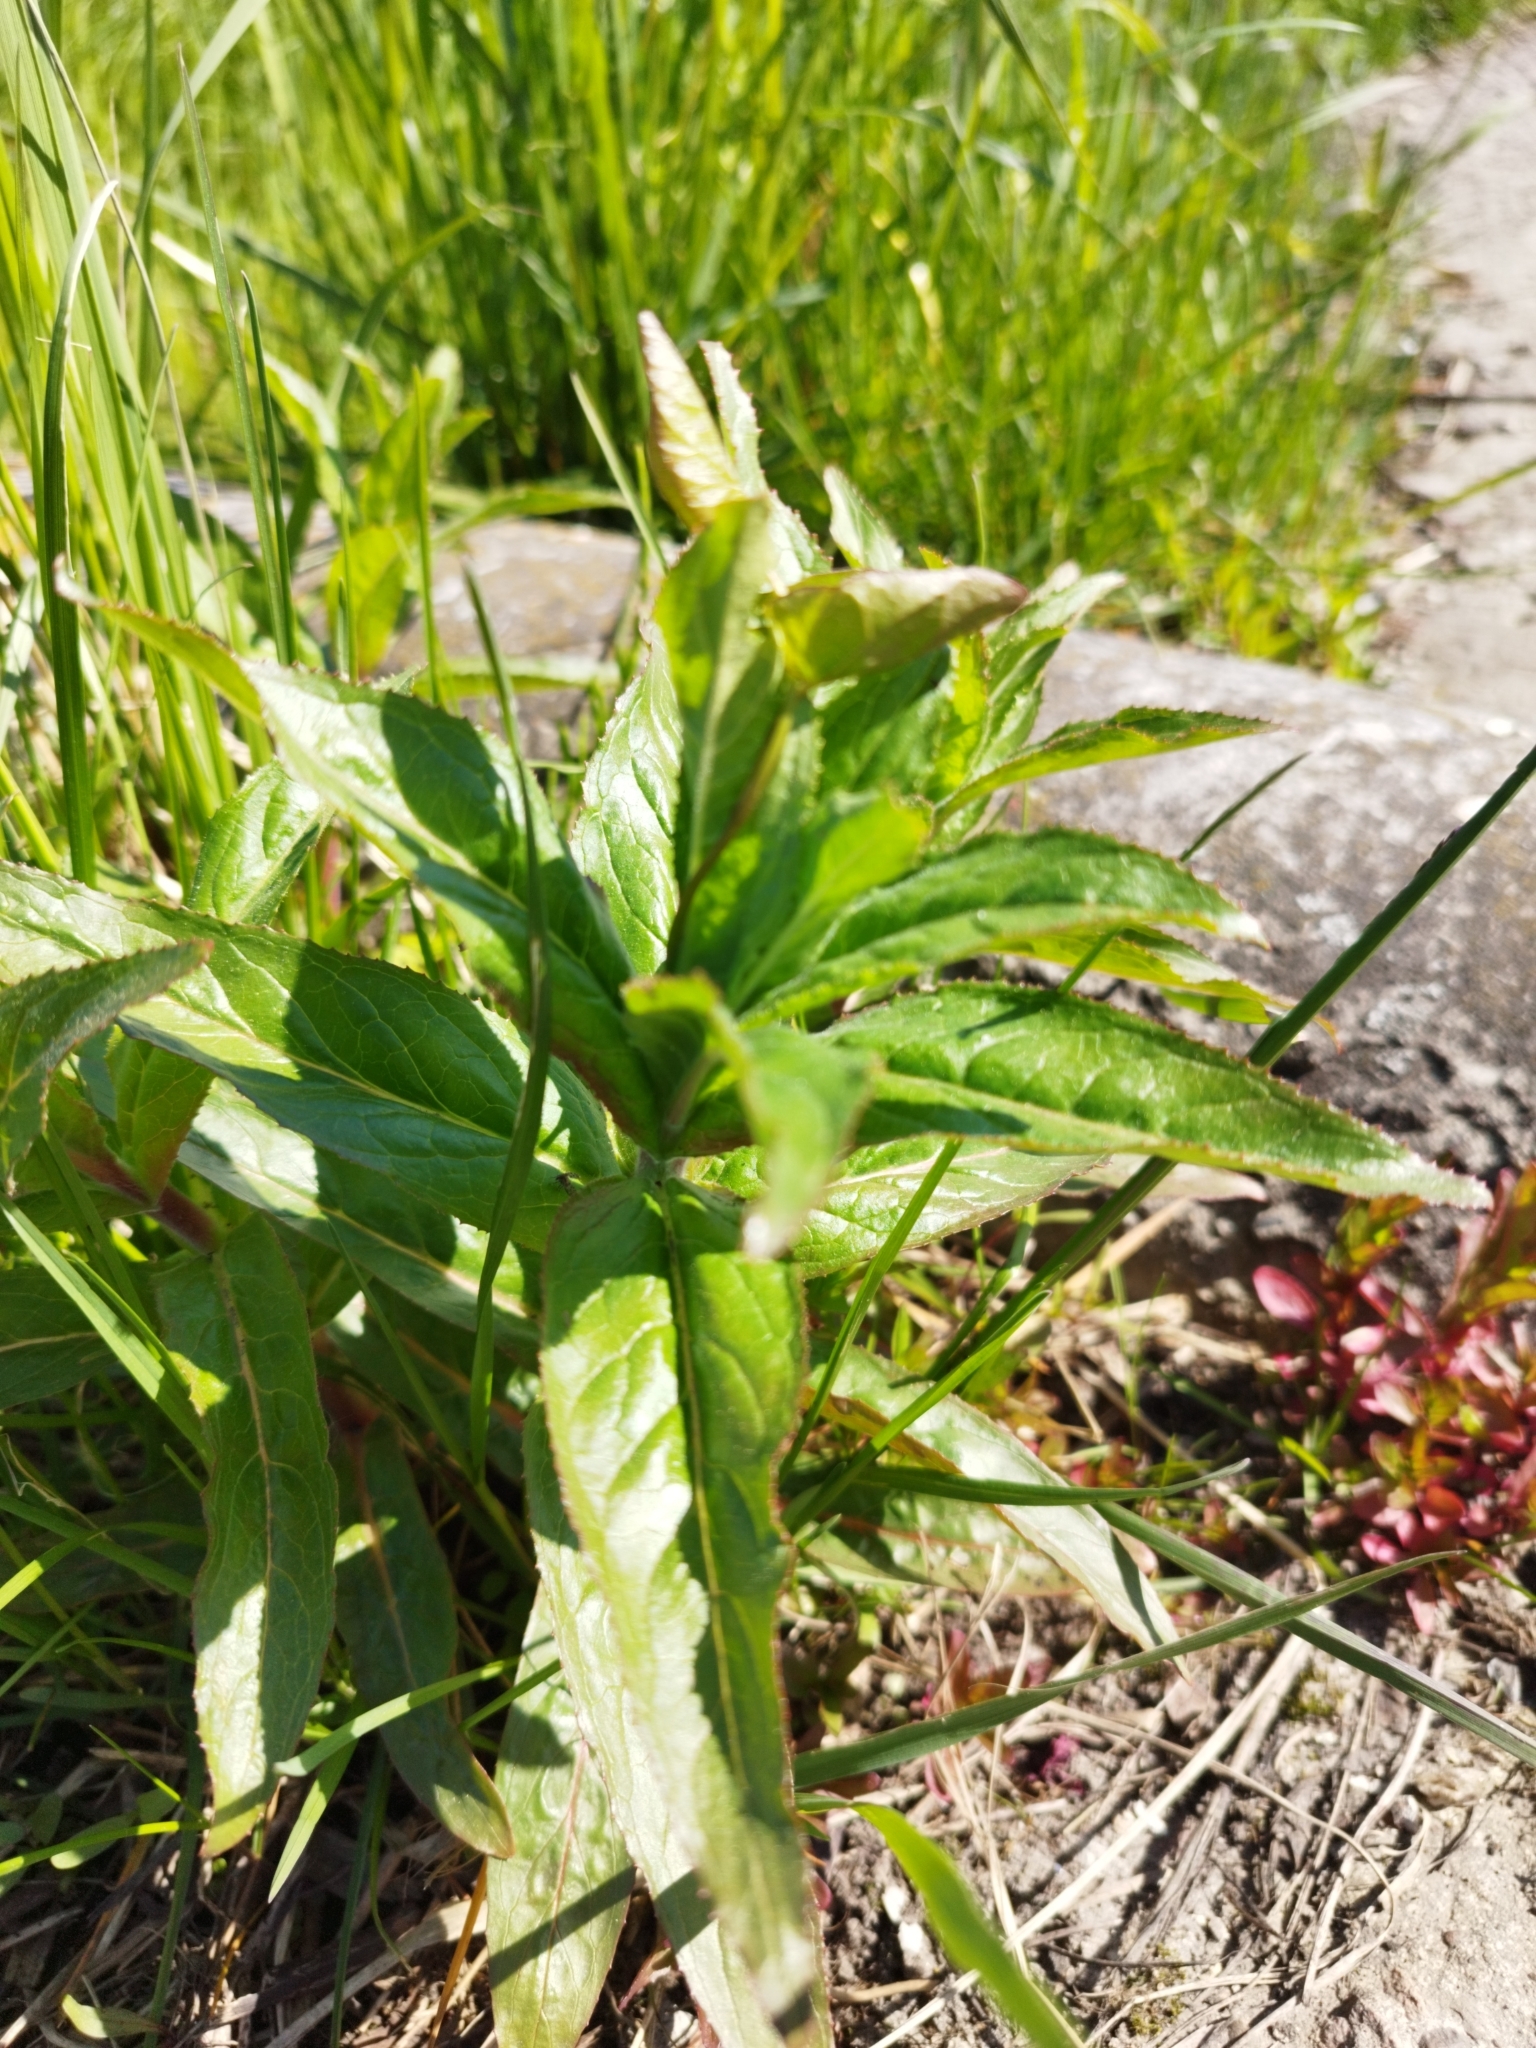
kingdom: Plantae
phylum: Tracheophyta
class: Magnoliopsida
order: Myrtales
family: Onagraceae
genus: Epilobium
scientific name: Epilobium hirsutum
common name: Great willowherb
